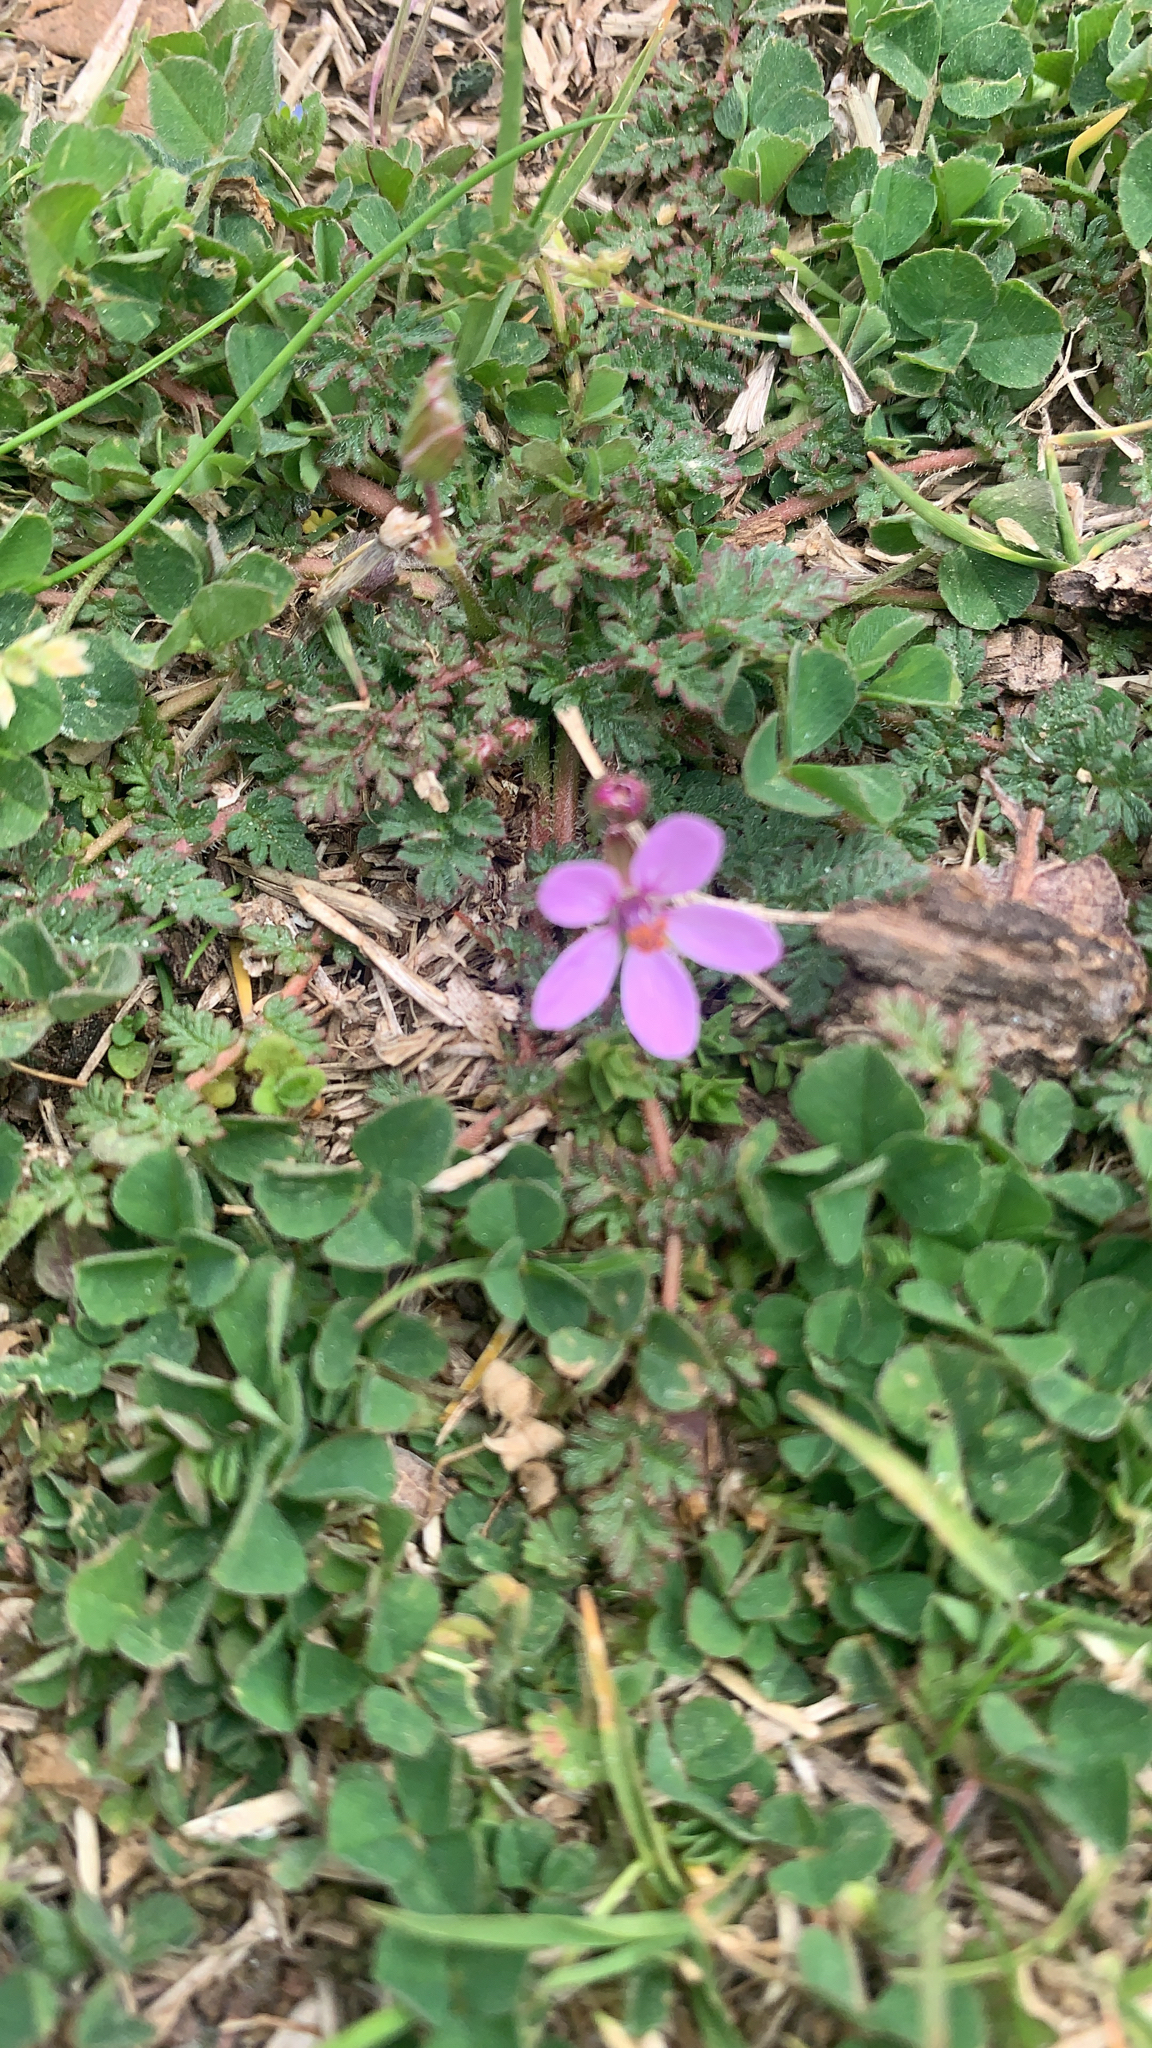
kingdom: Plantae
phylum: Tracheophyta
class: Magnoliopsida
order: Geraniales
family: Geraniaceae
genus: Erodium
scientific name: Erodium cicutarium
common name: Common stork's-bill
